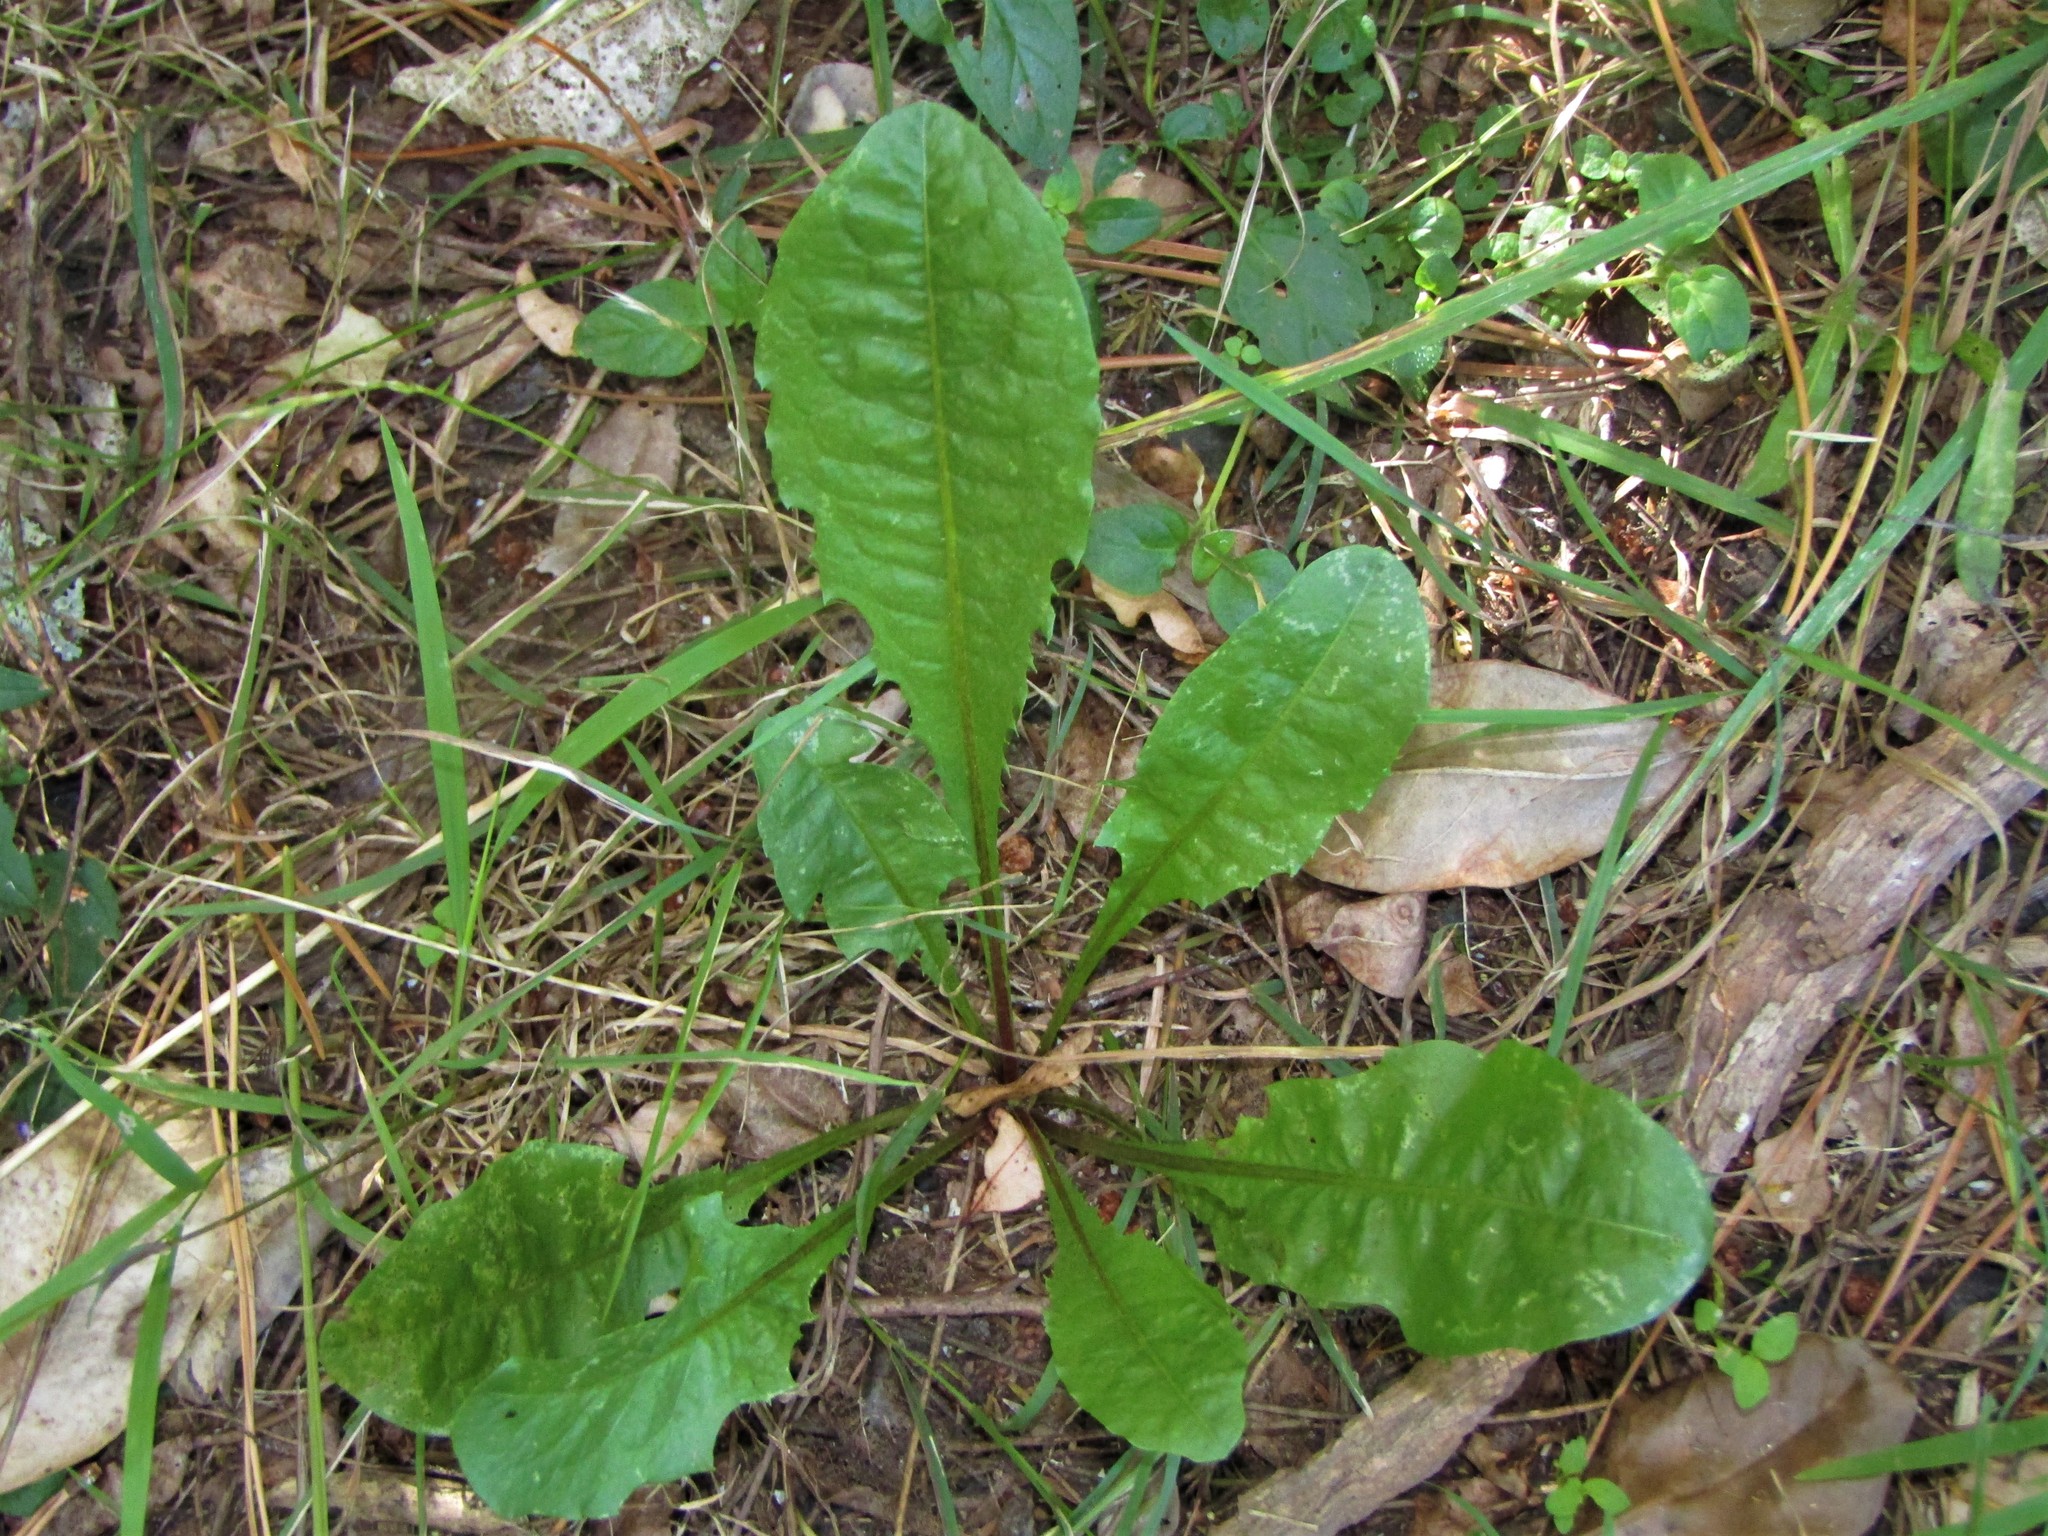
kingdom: Plantae
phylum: Tracheophyta
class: Magnoliopsida
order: Asterales
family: Asteraceae
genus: Taraxacum
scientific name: Taraxacum officinale
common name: Common dandelion
